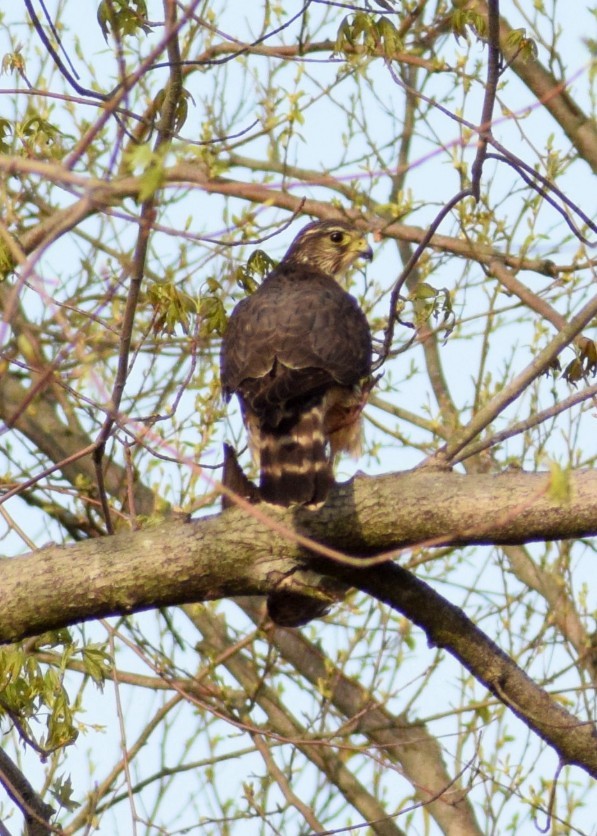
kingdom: Animalia
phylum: Chordata
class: Aves
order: Falconiformes
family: Falconidae
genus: Falco
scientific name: Falco columbarius
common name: Merlin
